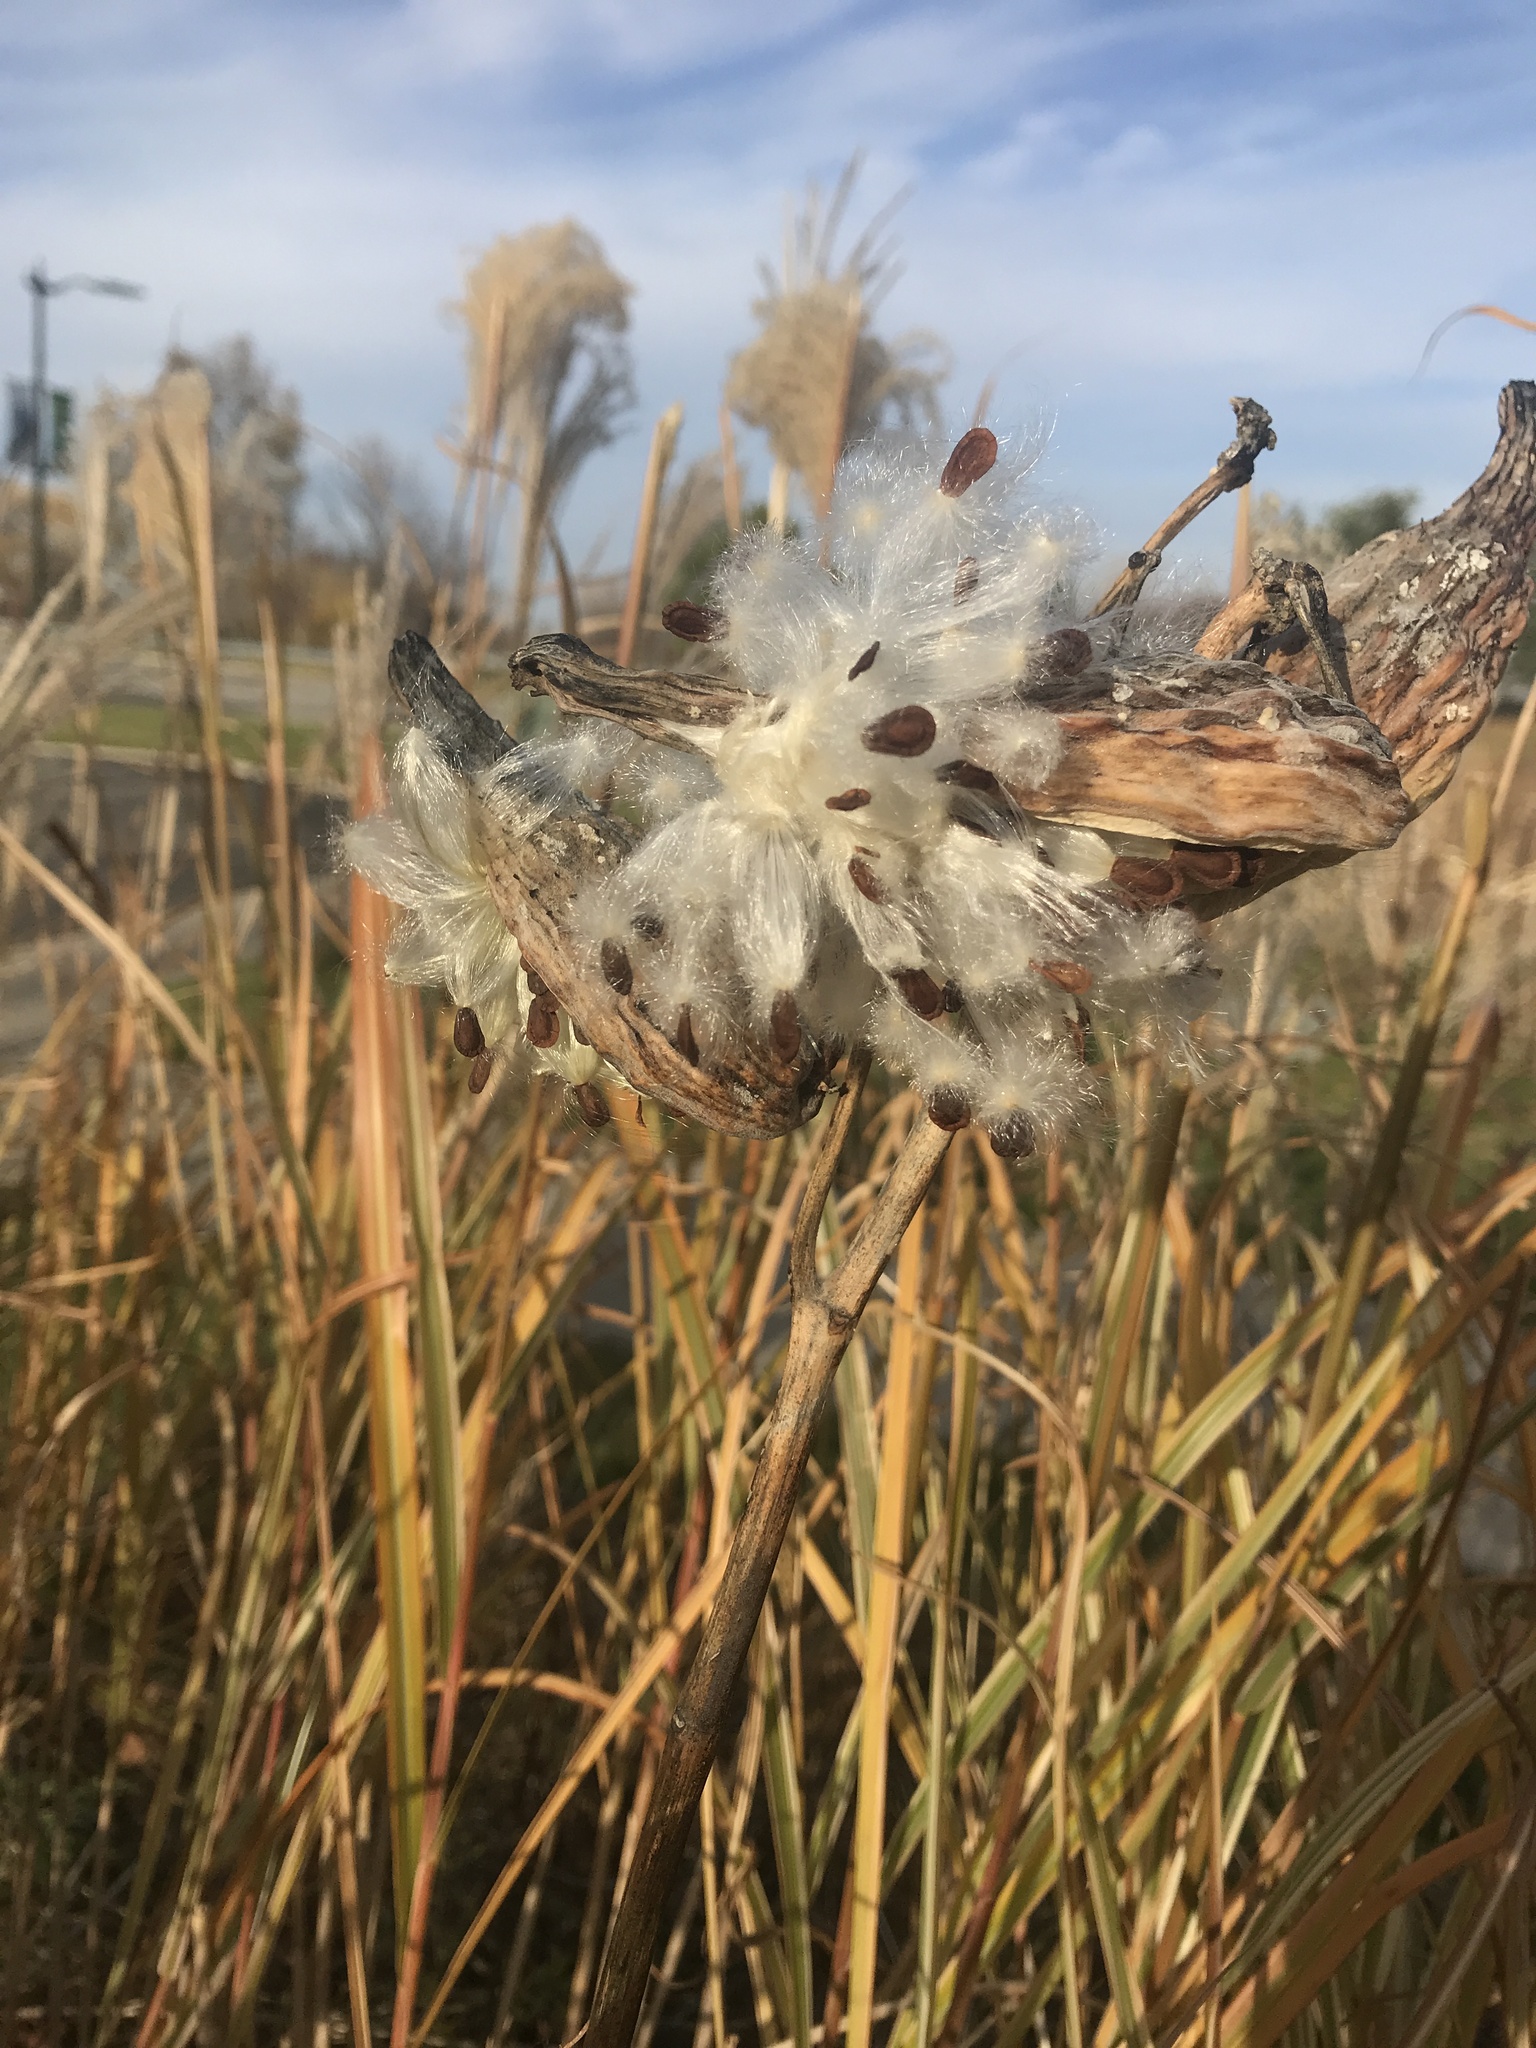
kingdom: Plantae
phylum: Tracheophyta
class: Magnoliopsida
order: Gentianales
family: Apocynaceae
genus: Asclepias
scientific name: Asclepias syriaca
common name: Common milkweed
